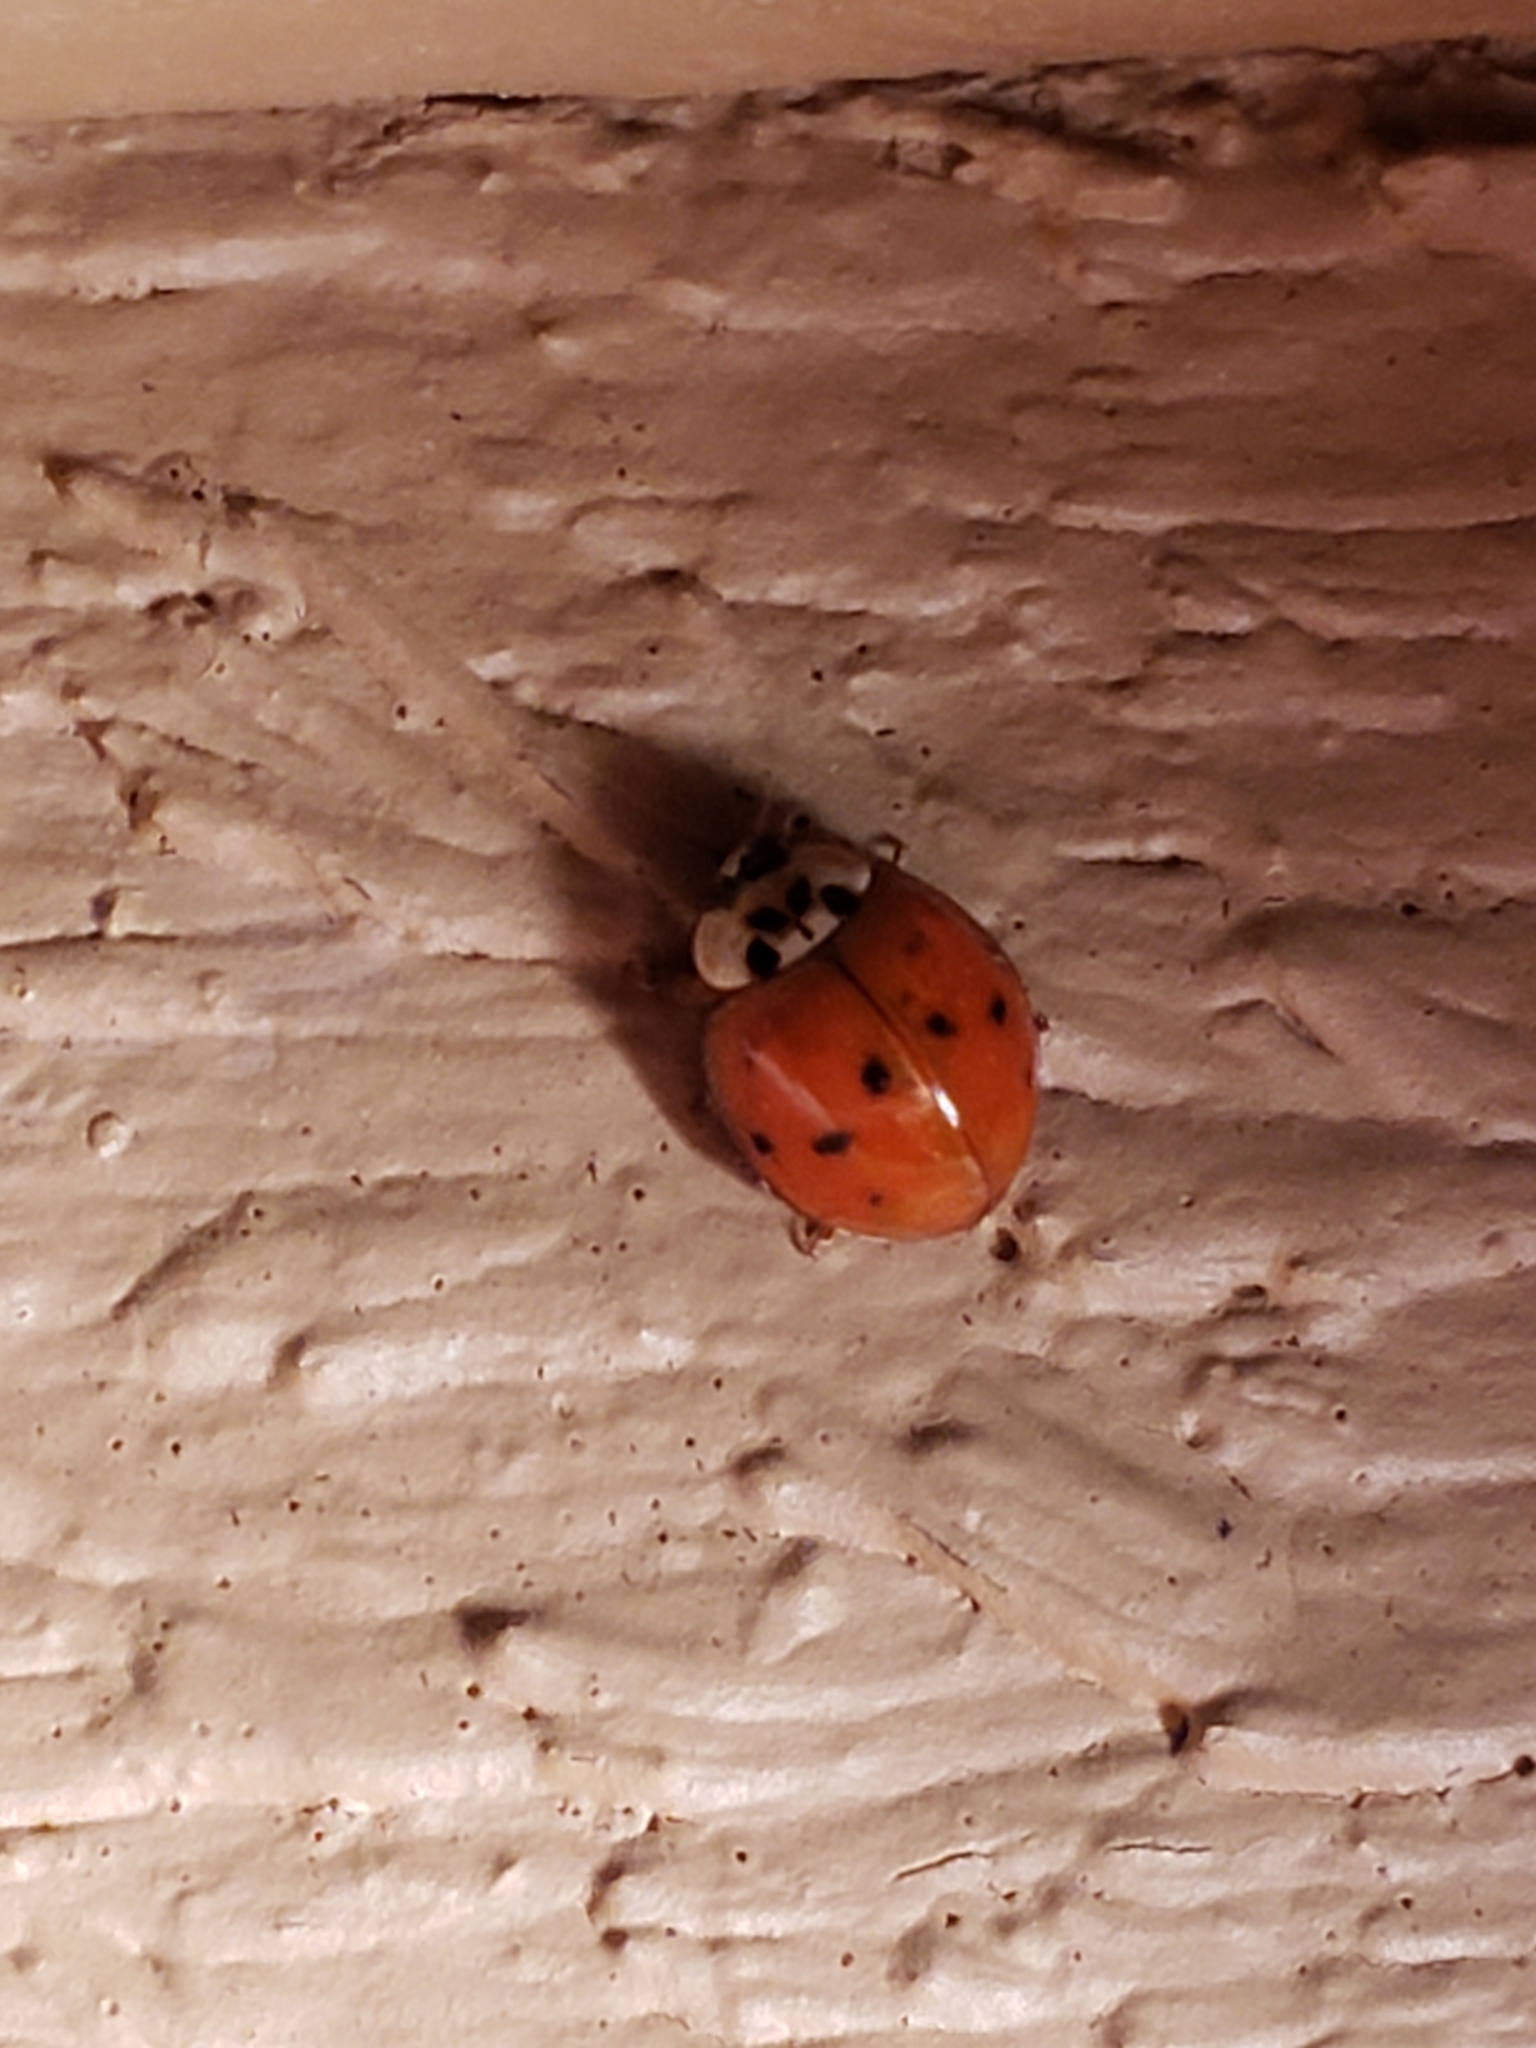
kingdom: Animalia
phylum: Arthropoda
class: Insecta
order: Coleoptera
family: Coccinellidae
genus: Harmonia
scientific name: Harmonia axyridis
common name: Harlequin ladybird
